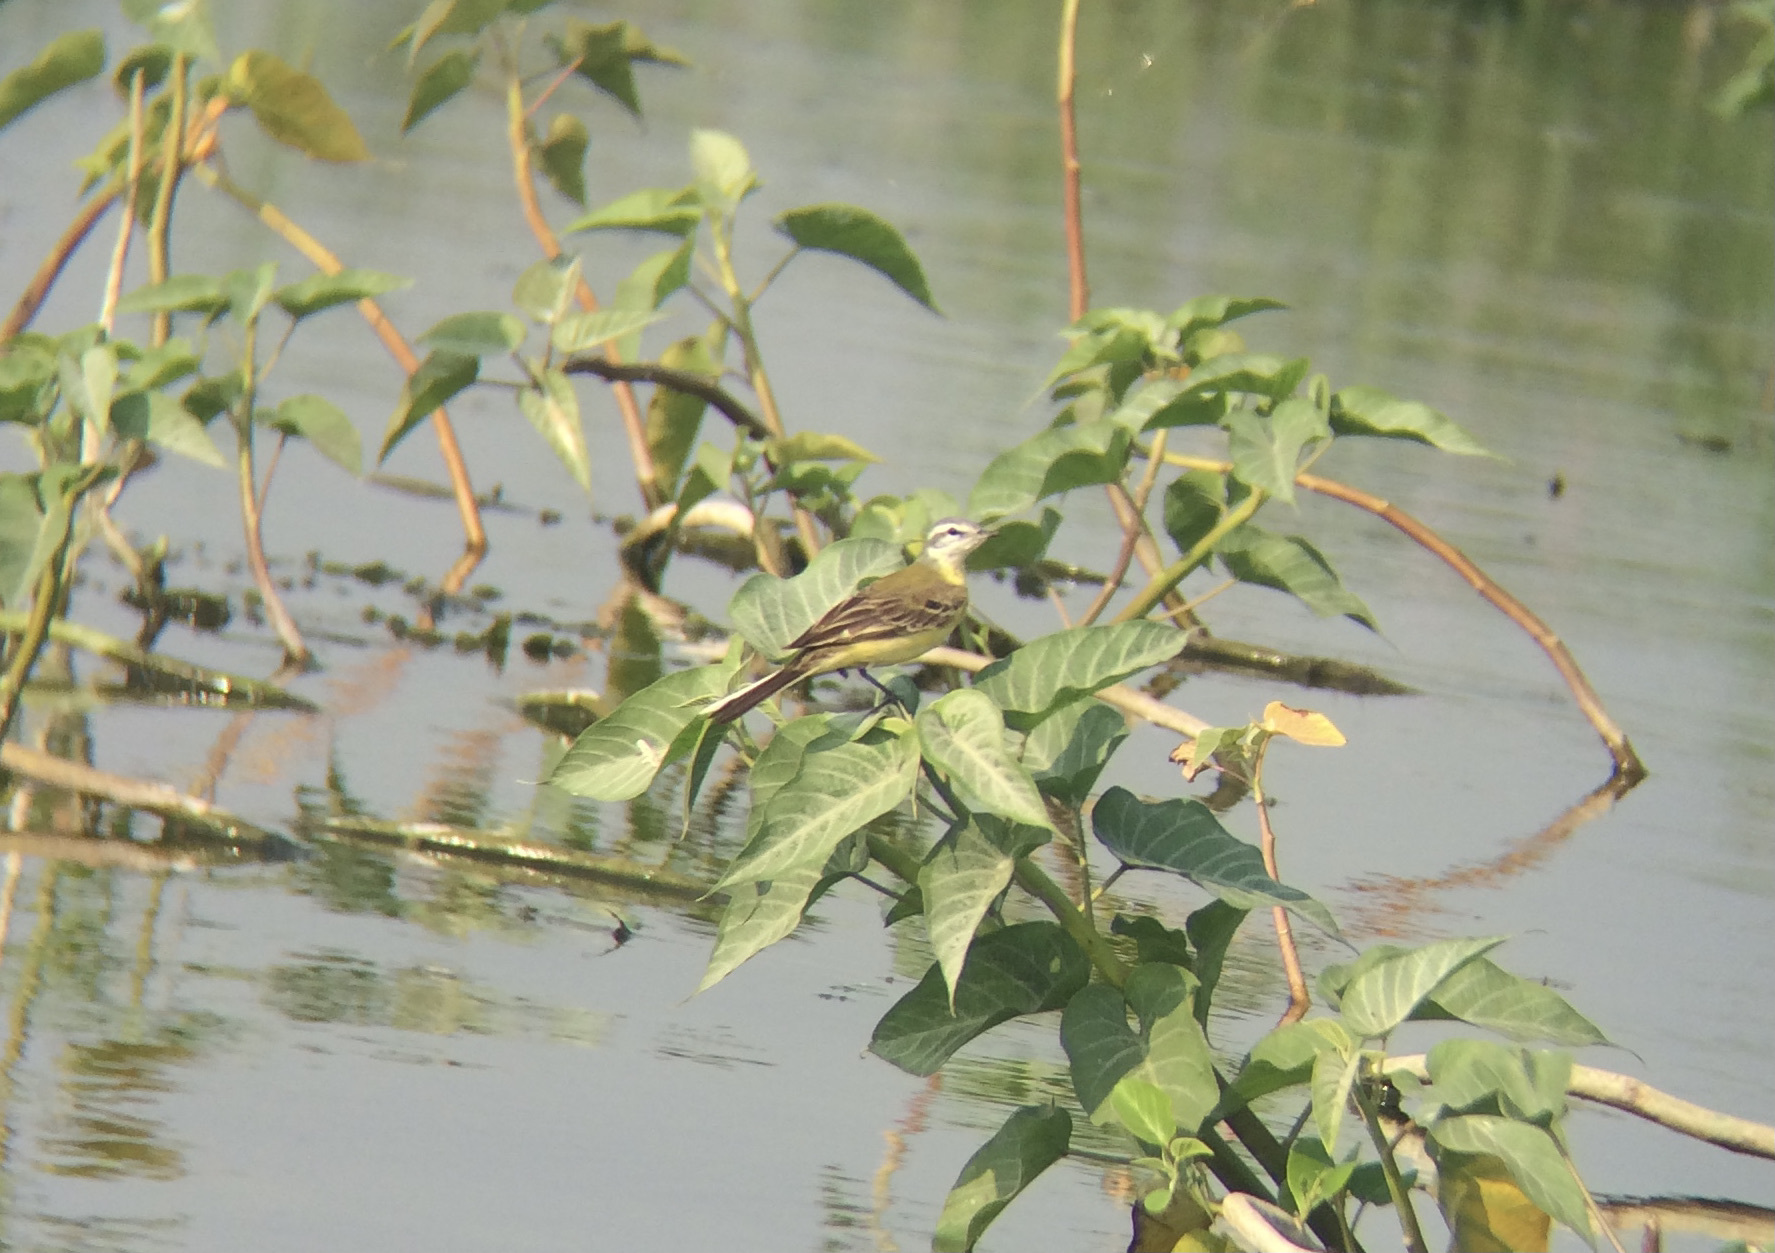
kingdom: Animalia
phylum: Chordata
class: Aves
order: Passeriformes
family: Motacillidae
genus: Motacilla
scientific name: Motacilla flava
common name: Western yellow wagtail
